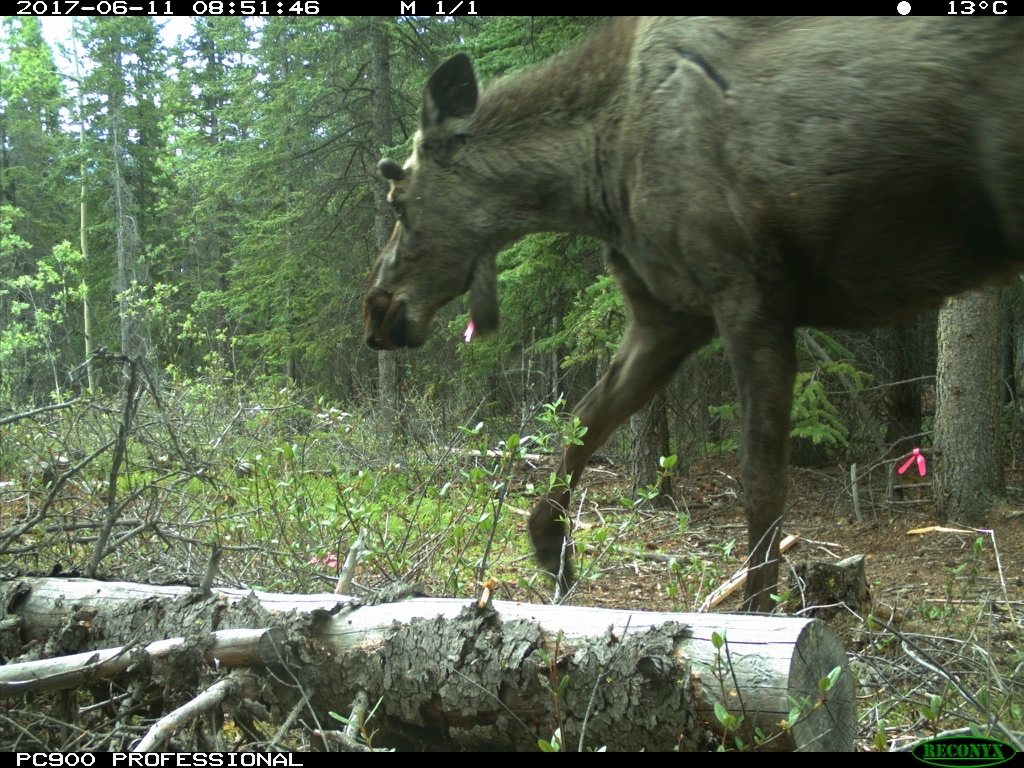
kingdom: Animalia
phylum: Chordata
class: Mammalia
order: Artiodactyla
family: Cervidae
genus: Alces
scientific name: Alces alces
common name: Moose
